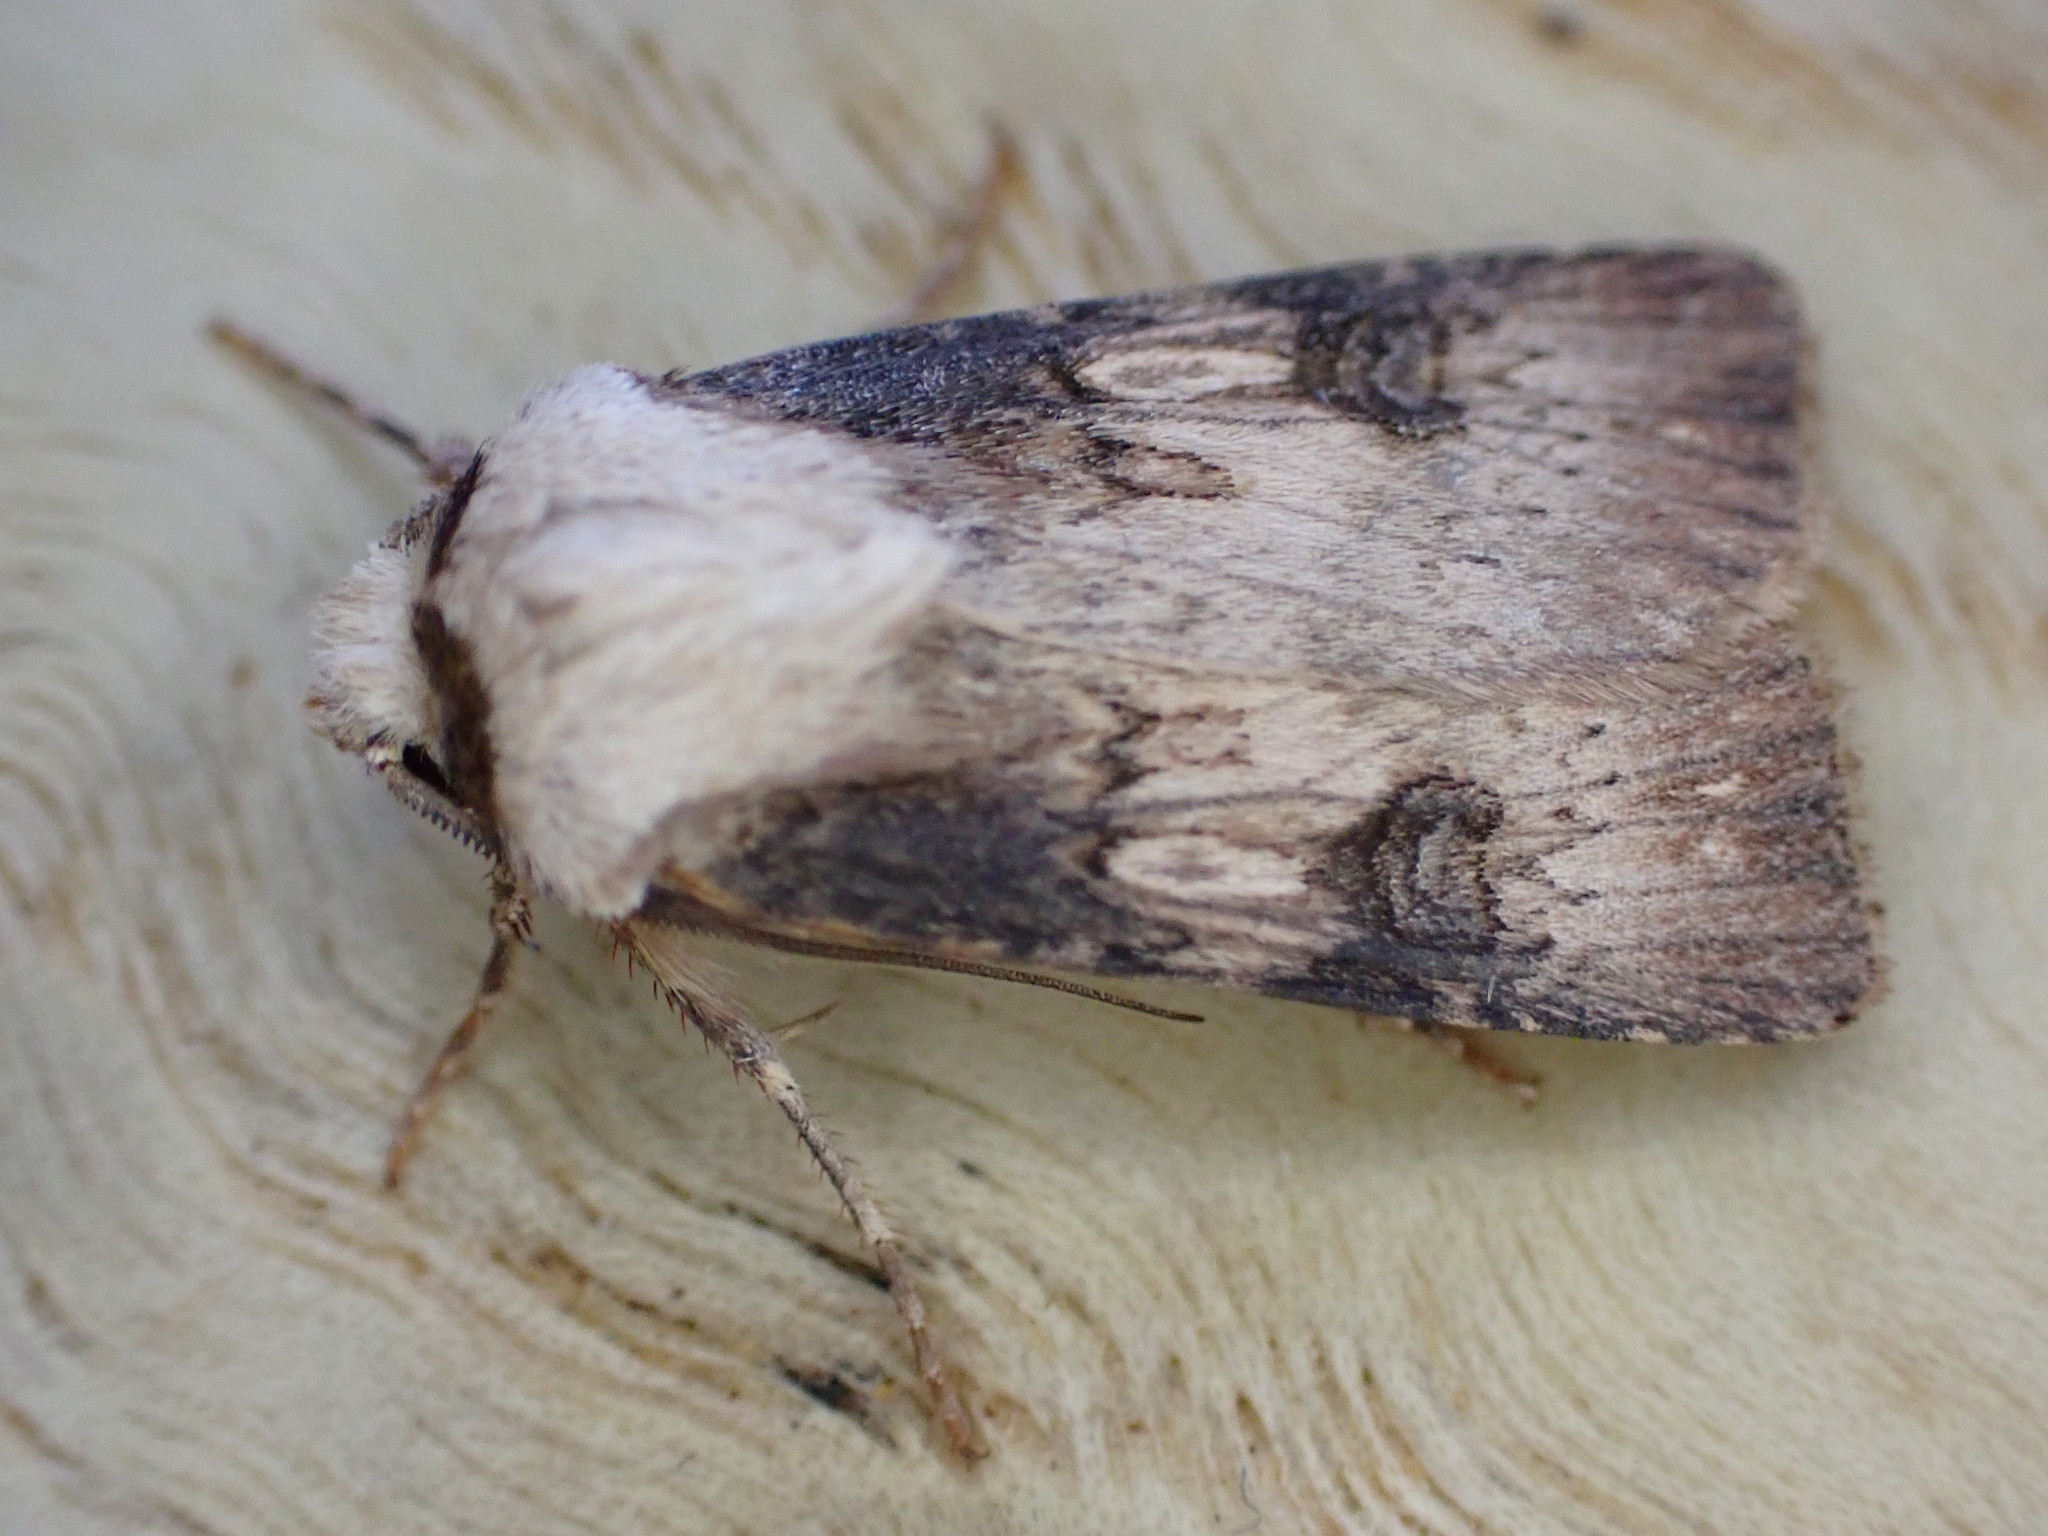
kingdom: Animalia
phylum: Arthropoda
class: Insecta
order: Lepidoptera
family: Noctuidae
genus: Agrotis
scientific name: Agrotis puta
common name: Shuttle-shaped dart
